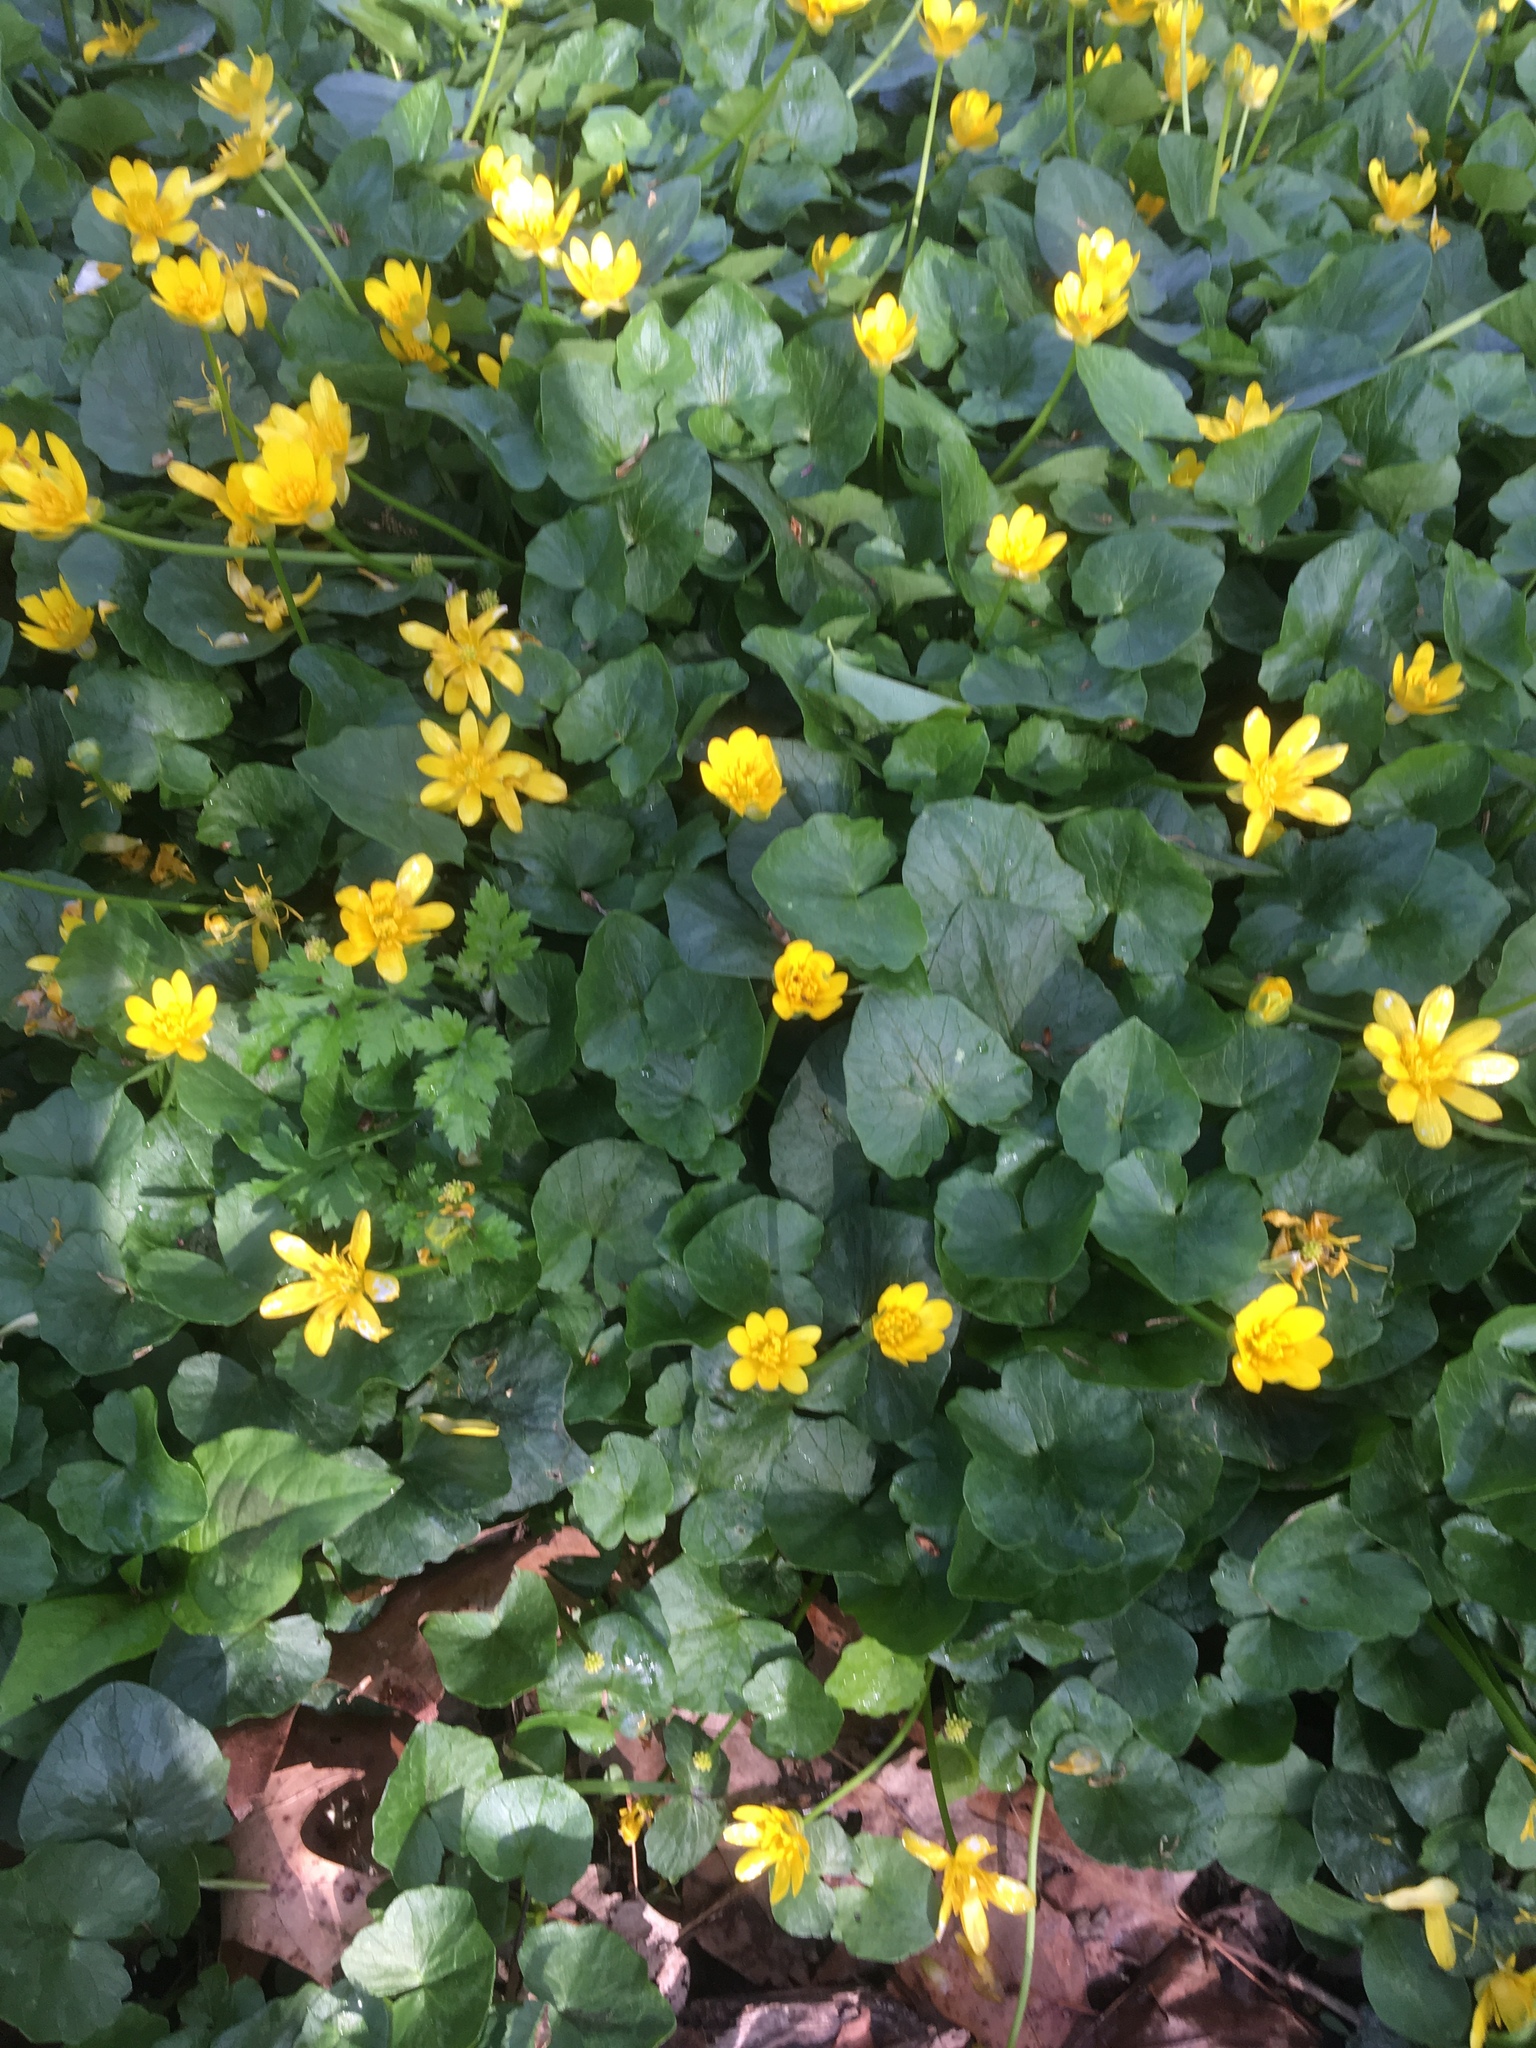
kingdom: Plantae
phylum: Tracheophyta
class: Magnoliopsida
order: Ranunculales
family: Ranunculaceae
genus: Ficaria
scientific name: Ficaria verna
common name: Lesser celandine
